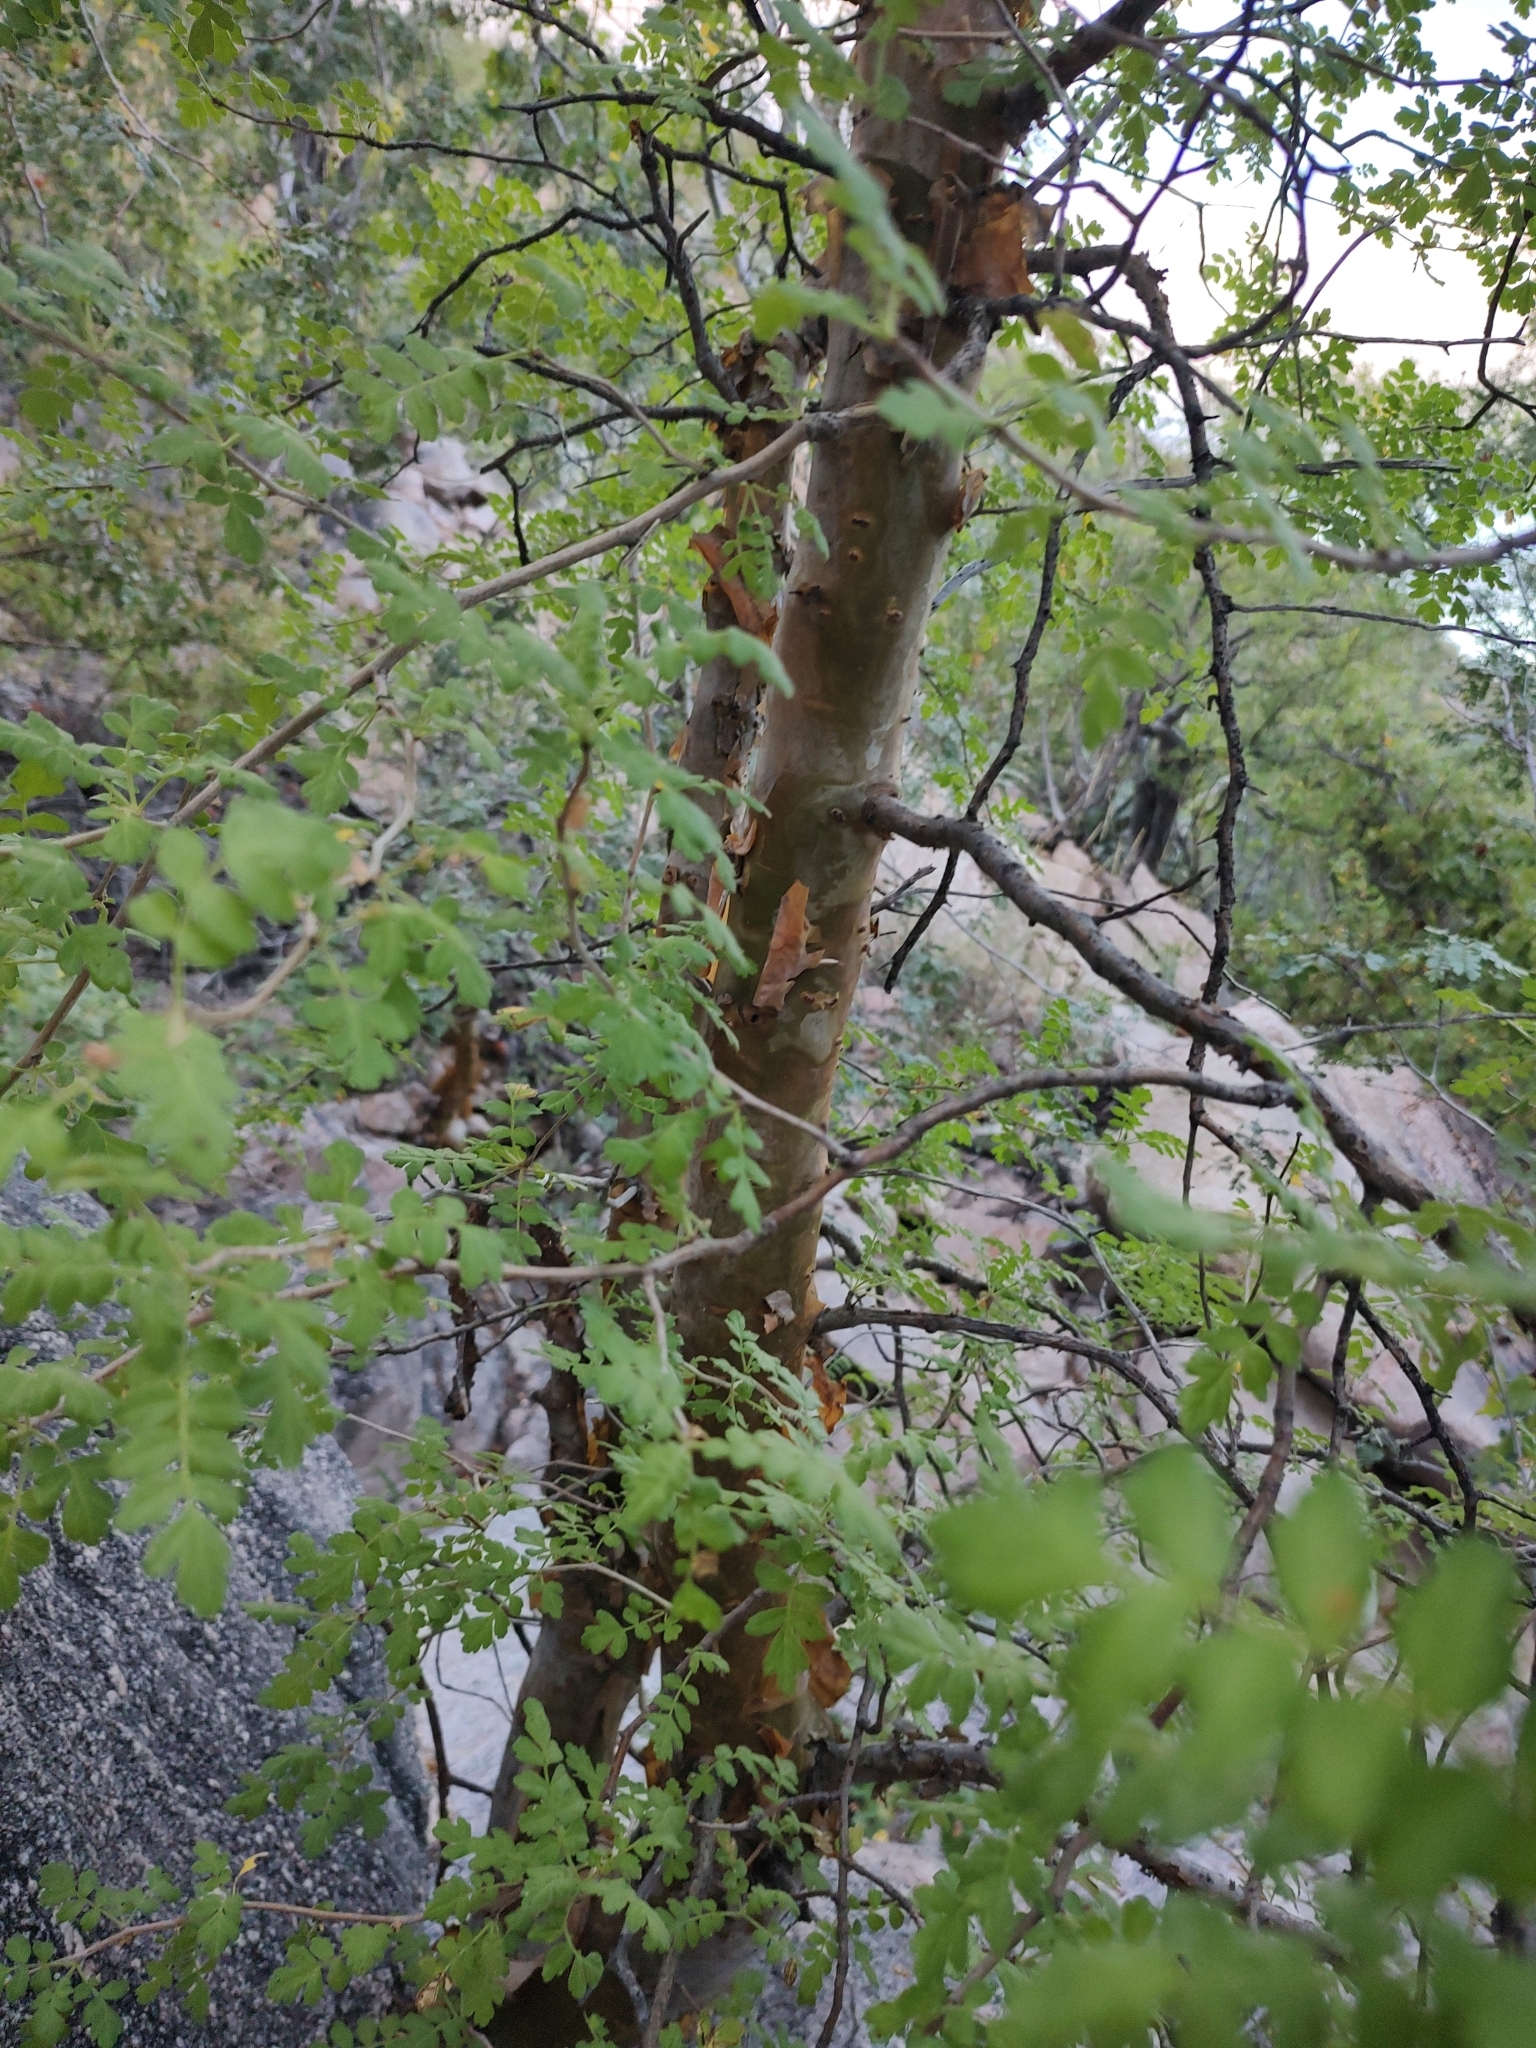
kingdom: Plantae
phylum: Tracheophyta
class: Magnoliopsida
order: Sapindales
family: Anacardiaceae
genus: Pachycormus
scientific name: Pachycormus discolor
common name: Succulent elephant trees
